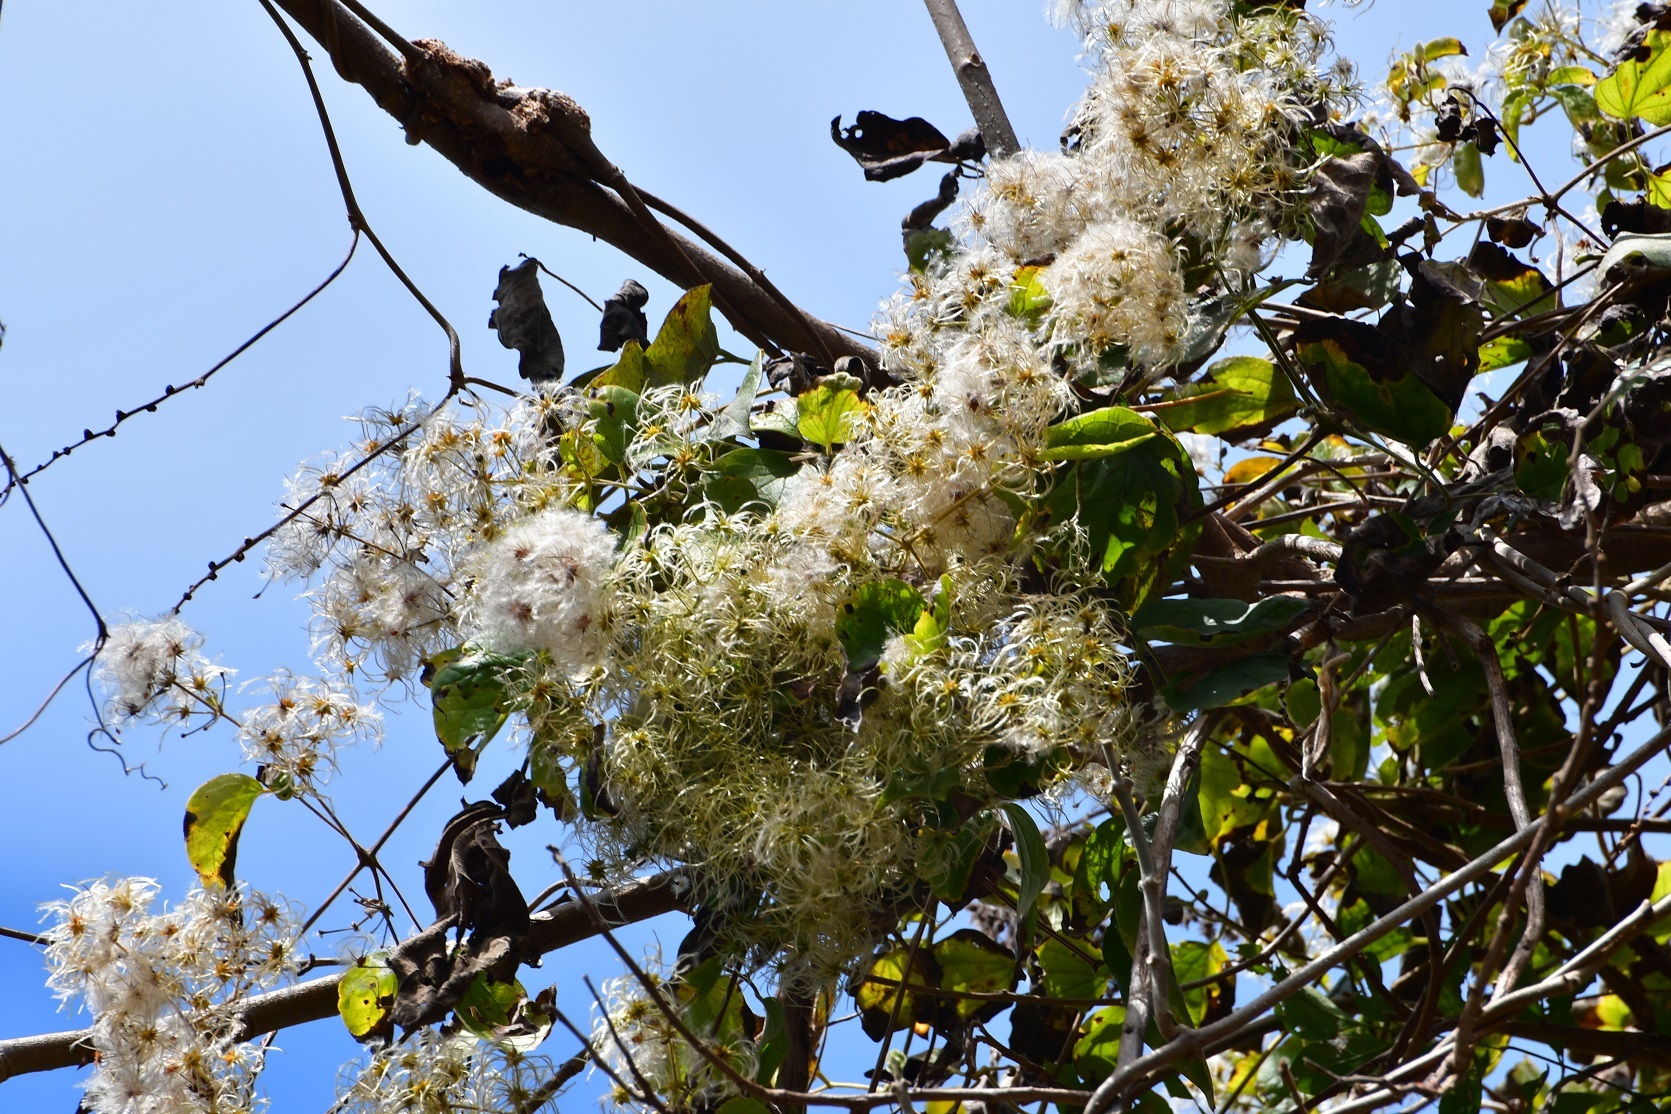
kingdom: Plantae
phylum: Tracheophyta
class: Magnoliopsida
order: Ranunculales
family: Ranunculaceae
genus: Clematis
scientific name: Clematis dioica
